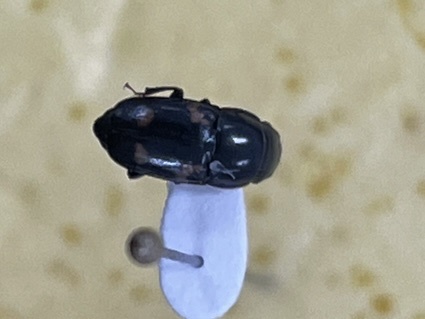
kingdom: Animalia
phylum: Arthropoda
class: Insecta
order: Coleoptera
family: Nitidulidae
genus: Glischrochilus
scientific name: Glischrochilus quadrisignatus
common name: Picnic beetle
